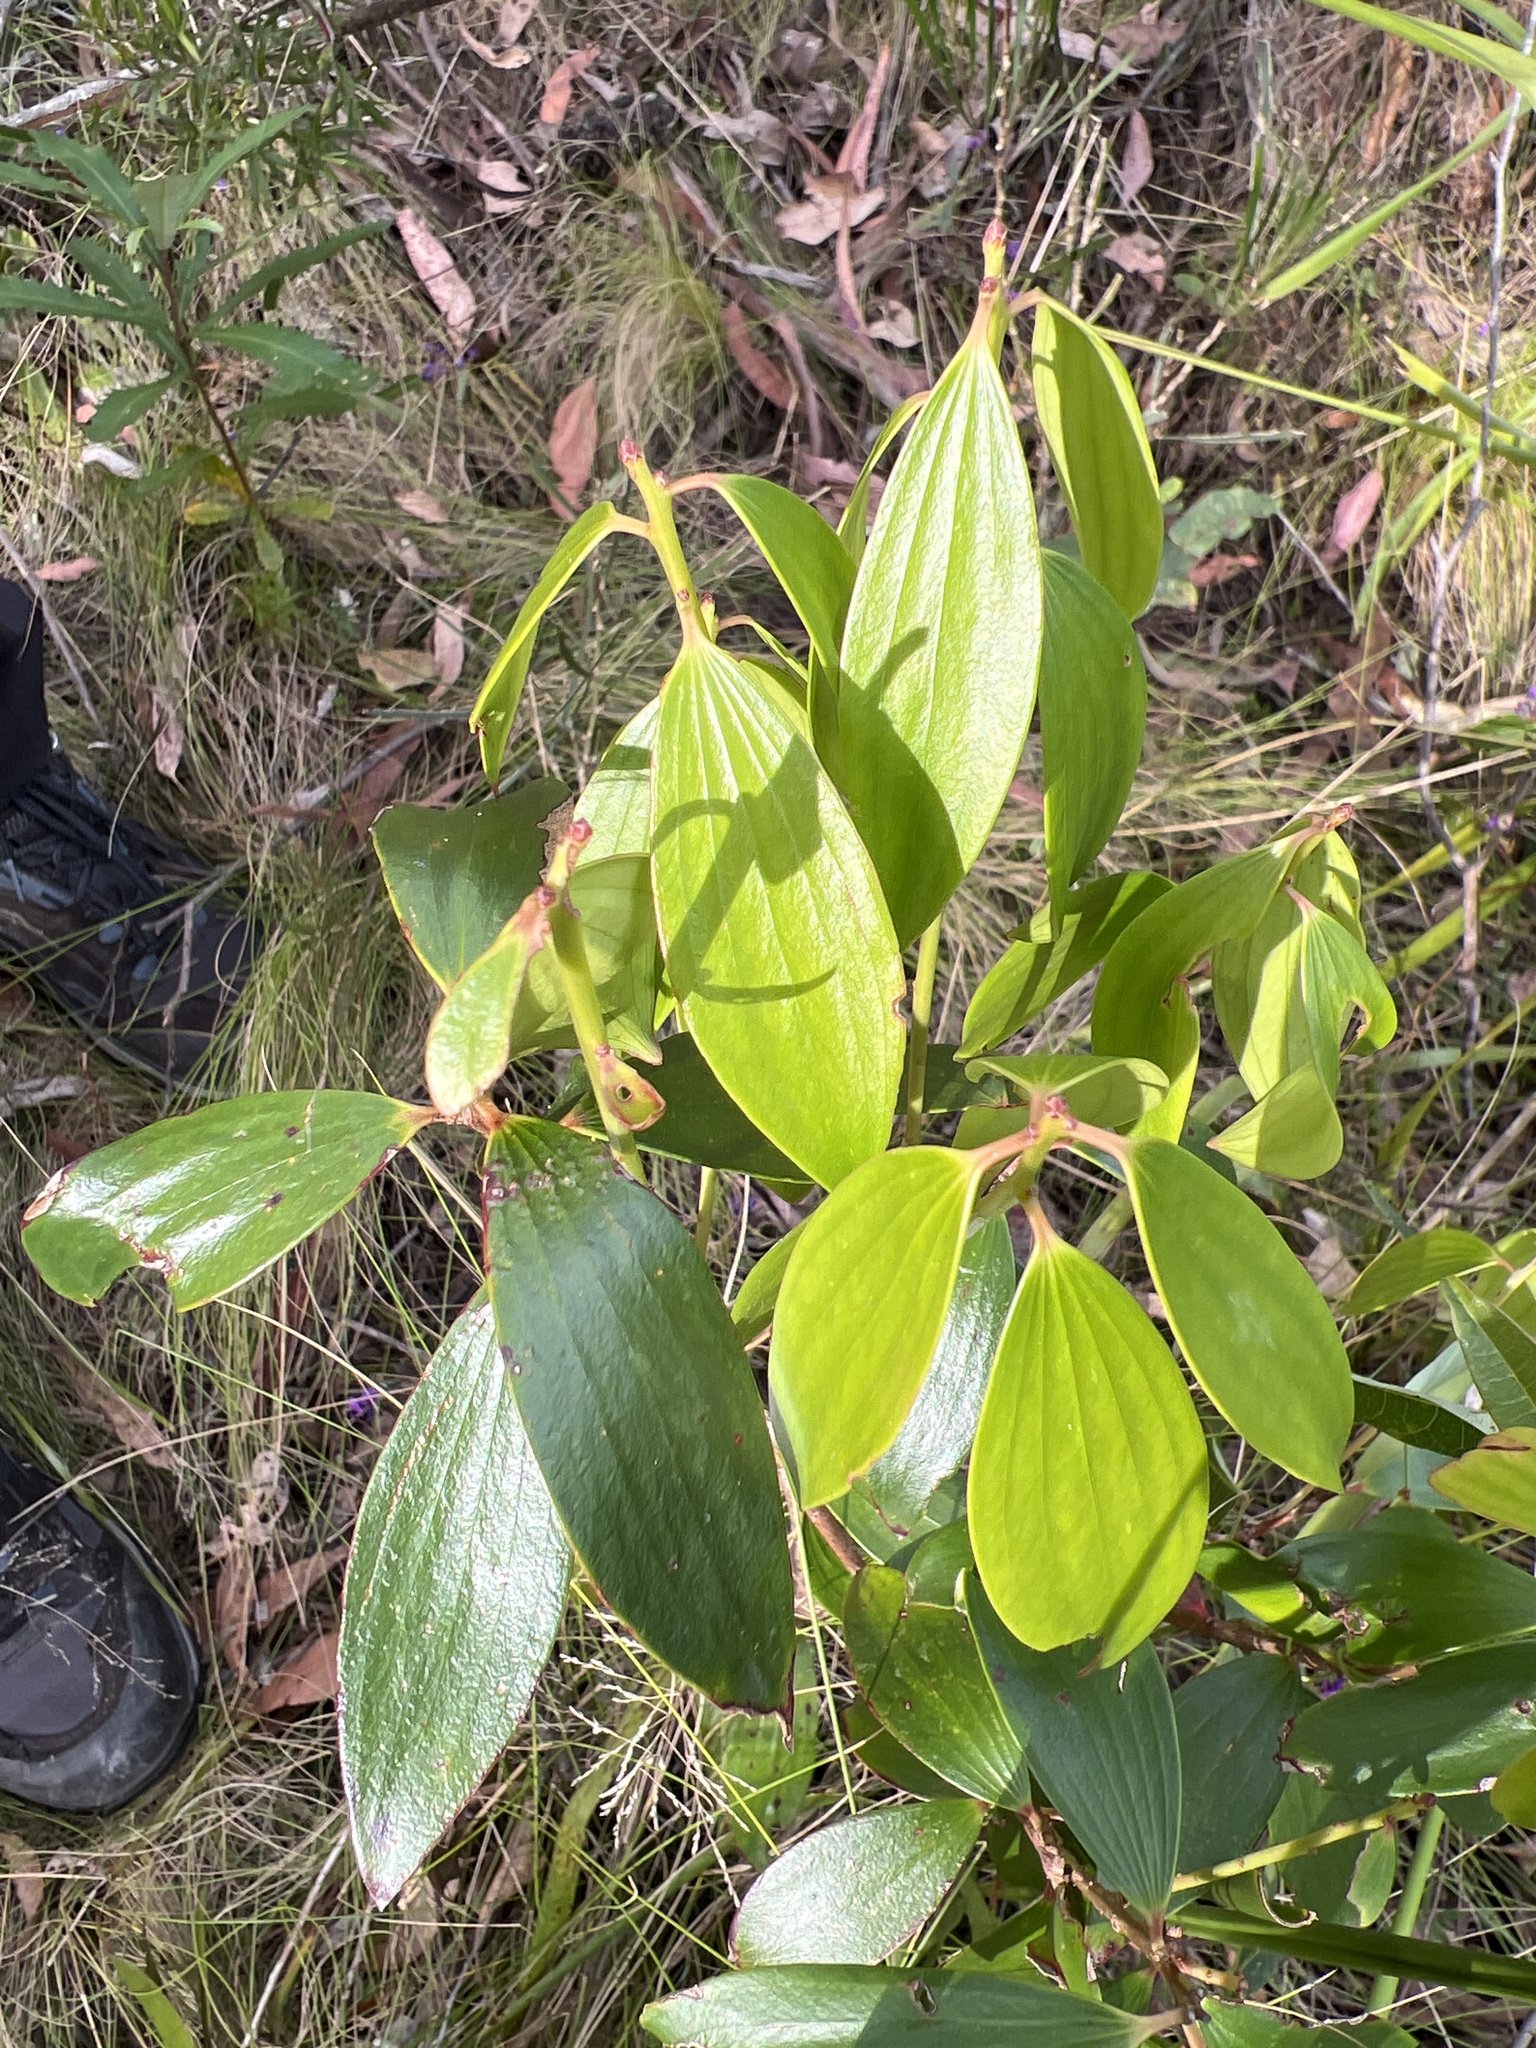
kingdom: Plantae
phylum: Tracheophyta
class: Magnoliopsida
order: Ericales
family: Ericaceae
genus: Trochocarpa
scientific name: Trochocarpa laurina
